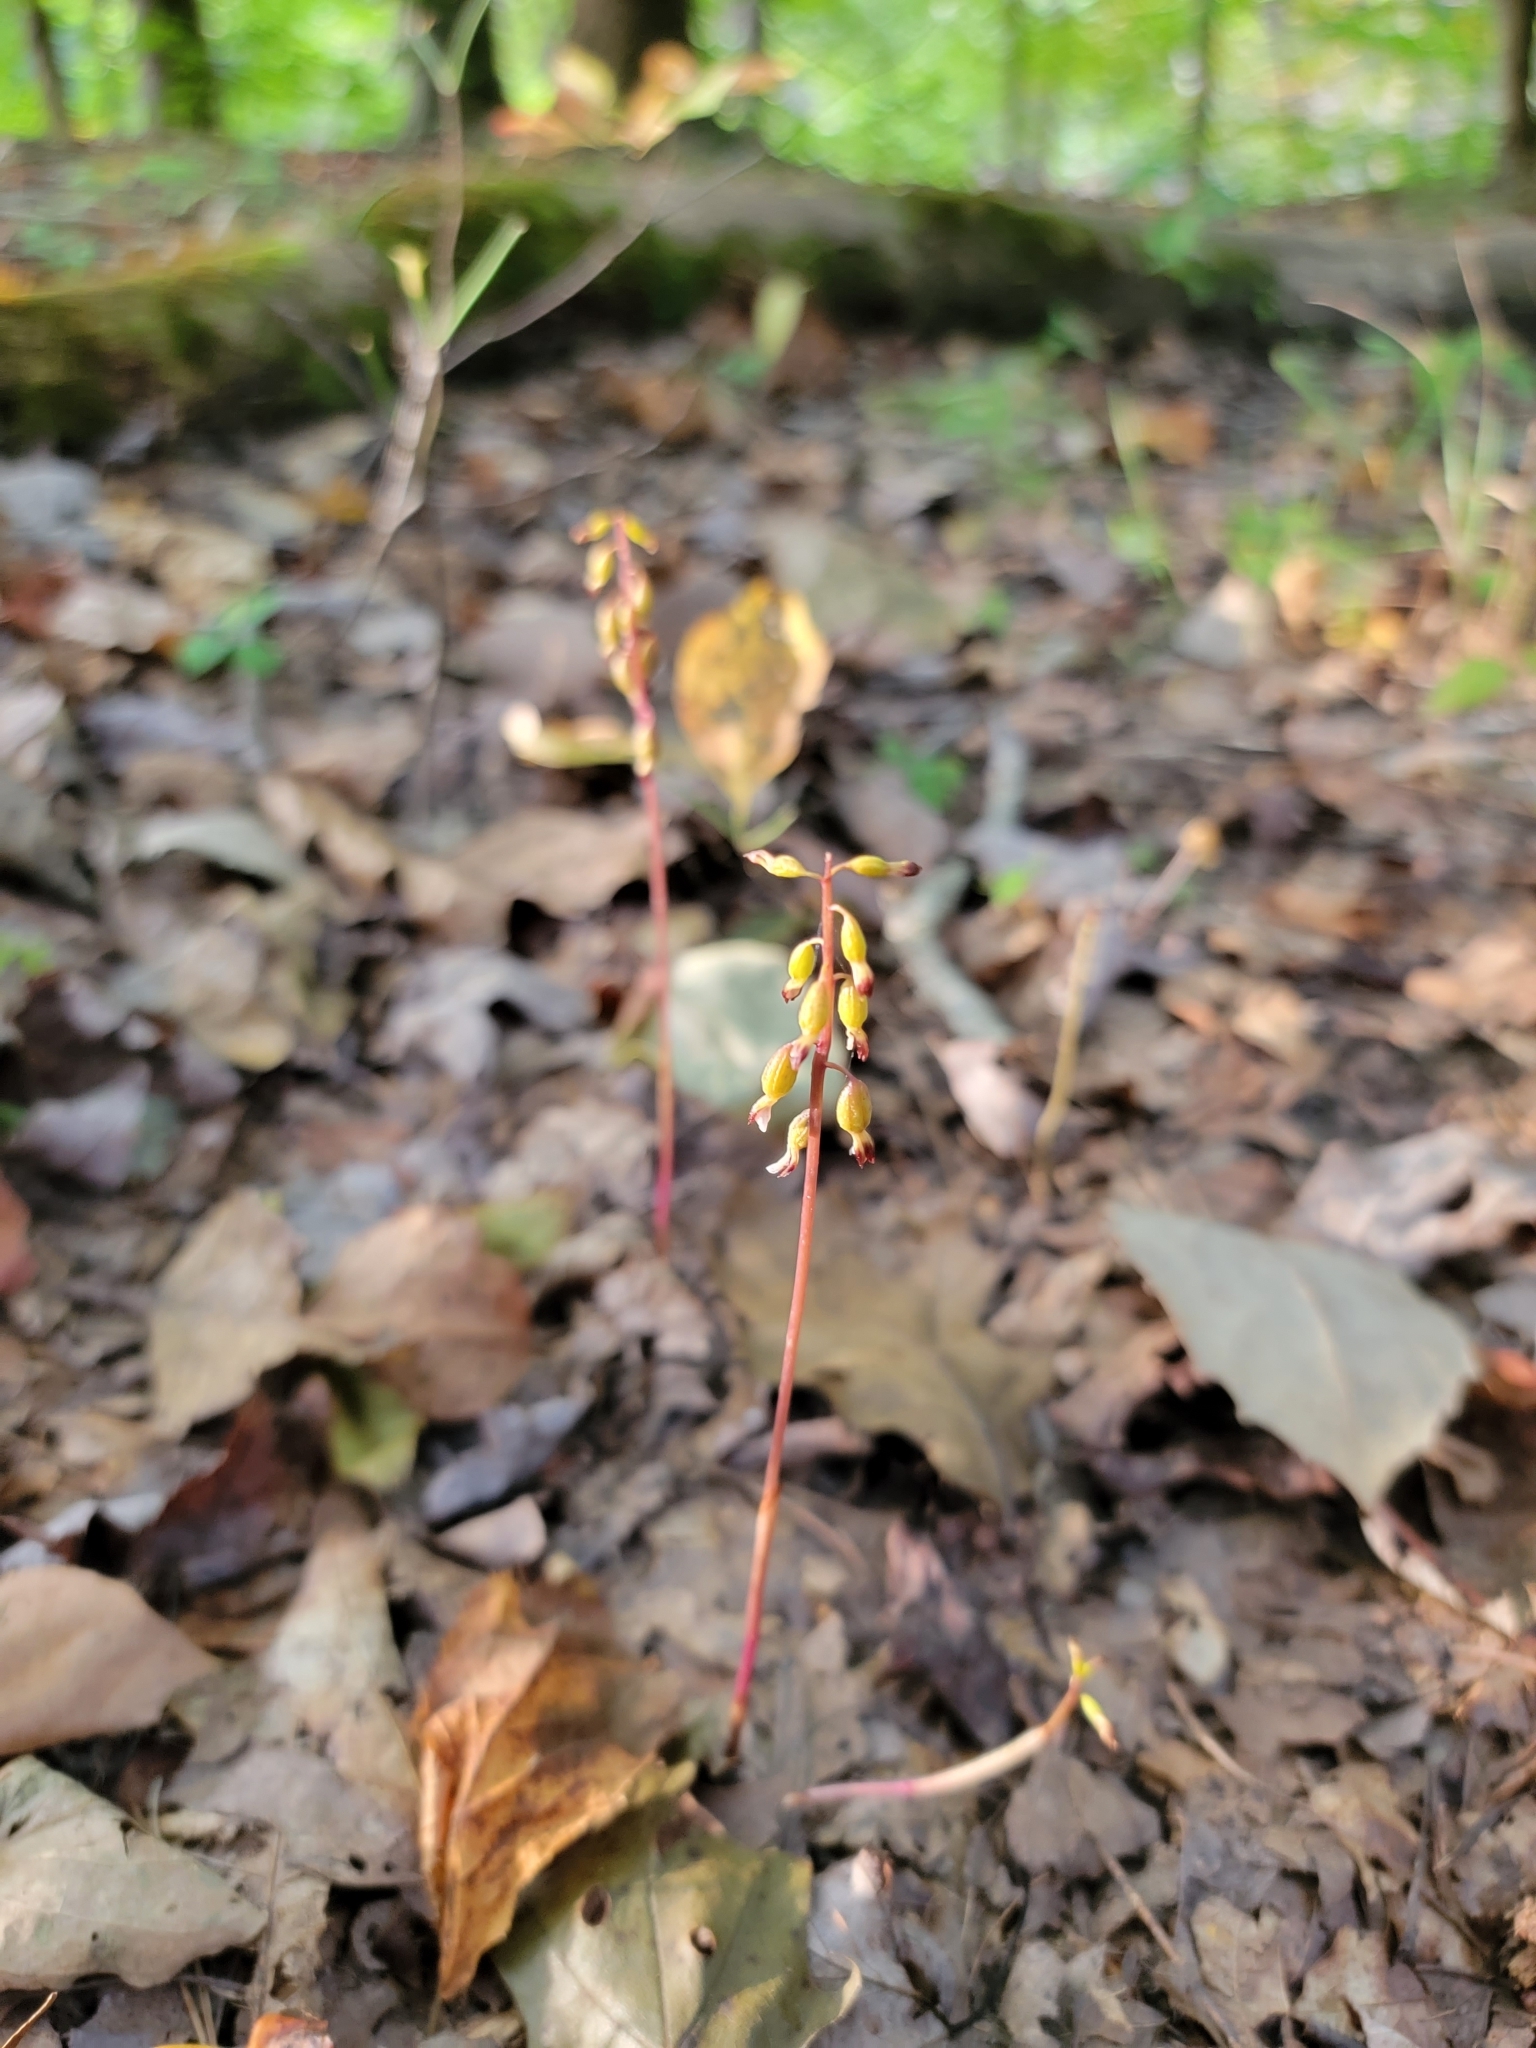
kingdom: Plantae
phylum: Tracheophyta
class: Liliopsida
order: Asparagales
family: Orchidaceae
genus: Corallorhiza
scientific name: Corallorhiza odontorhiza
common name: Autumn coralroot
